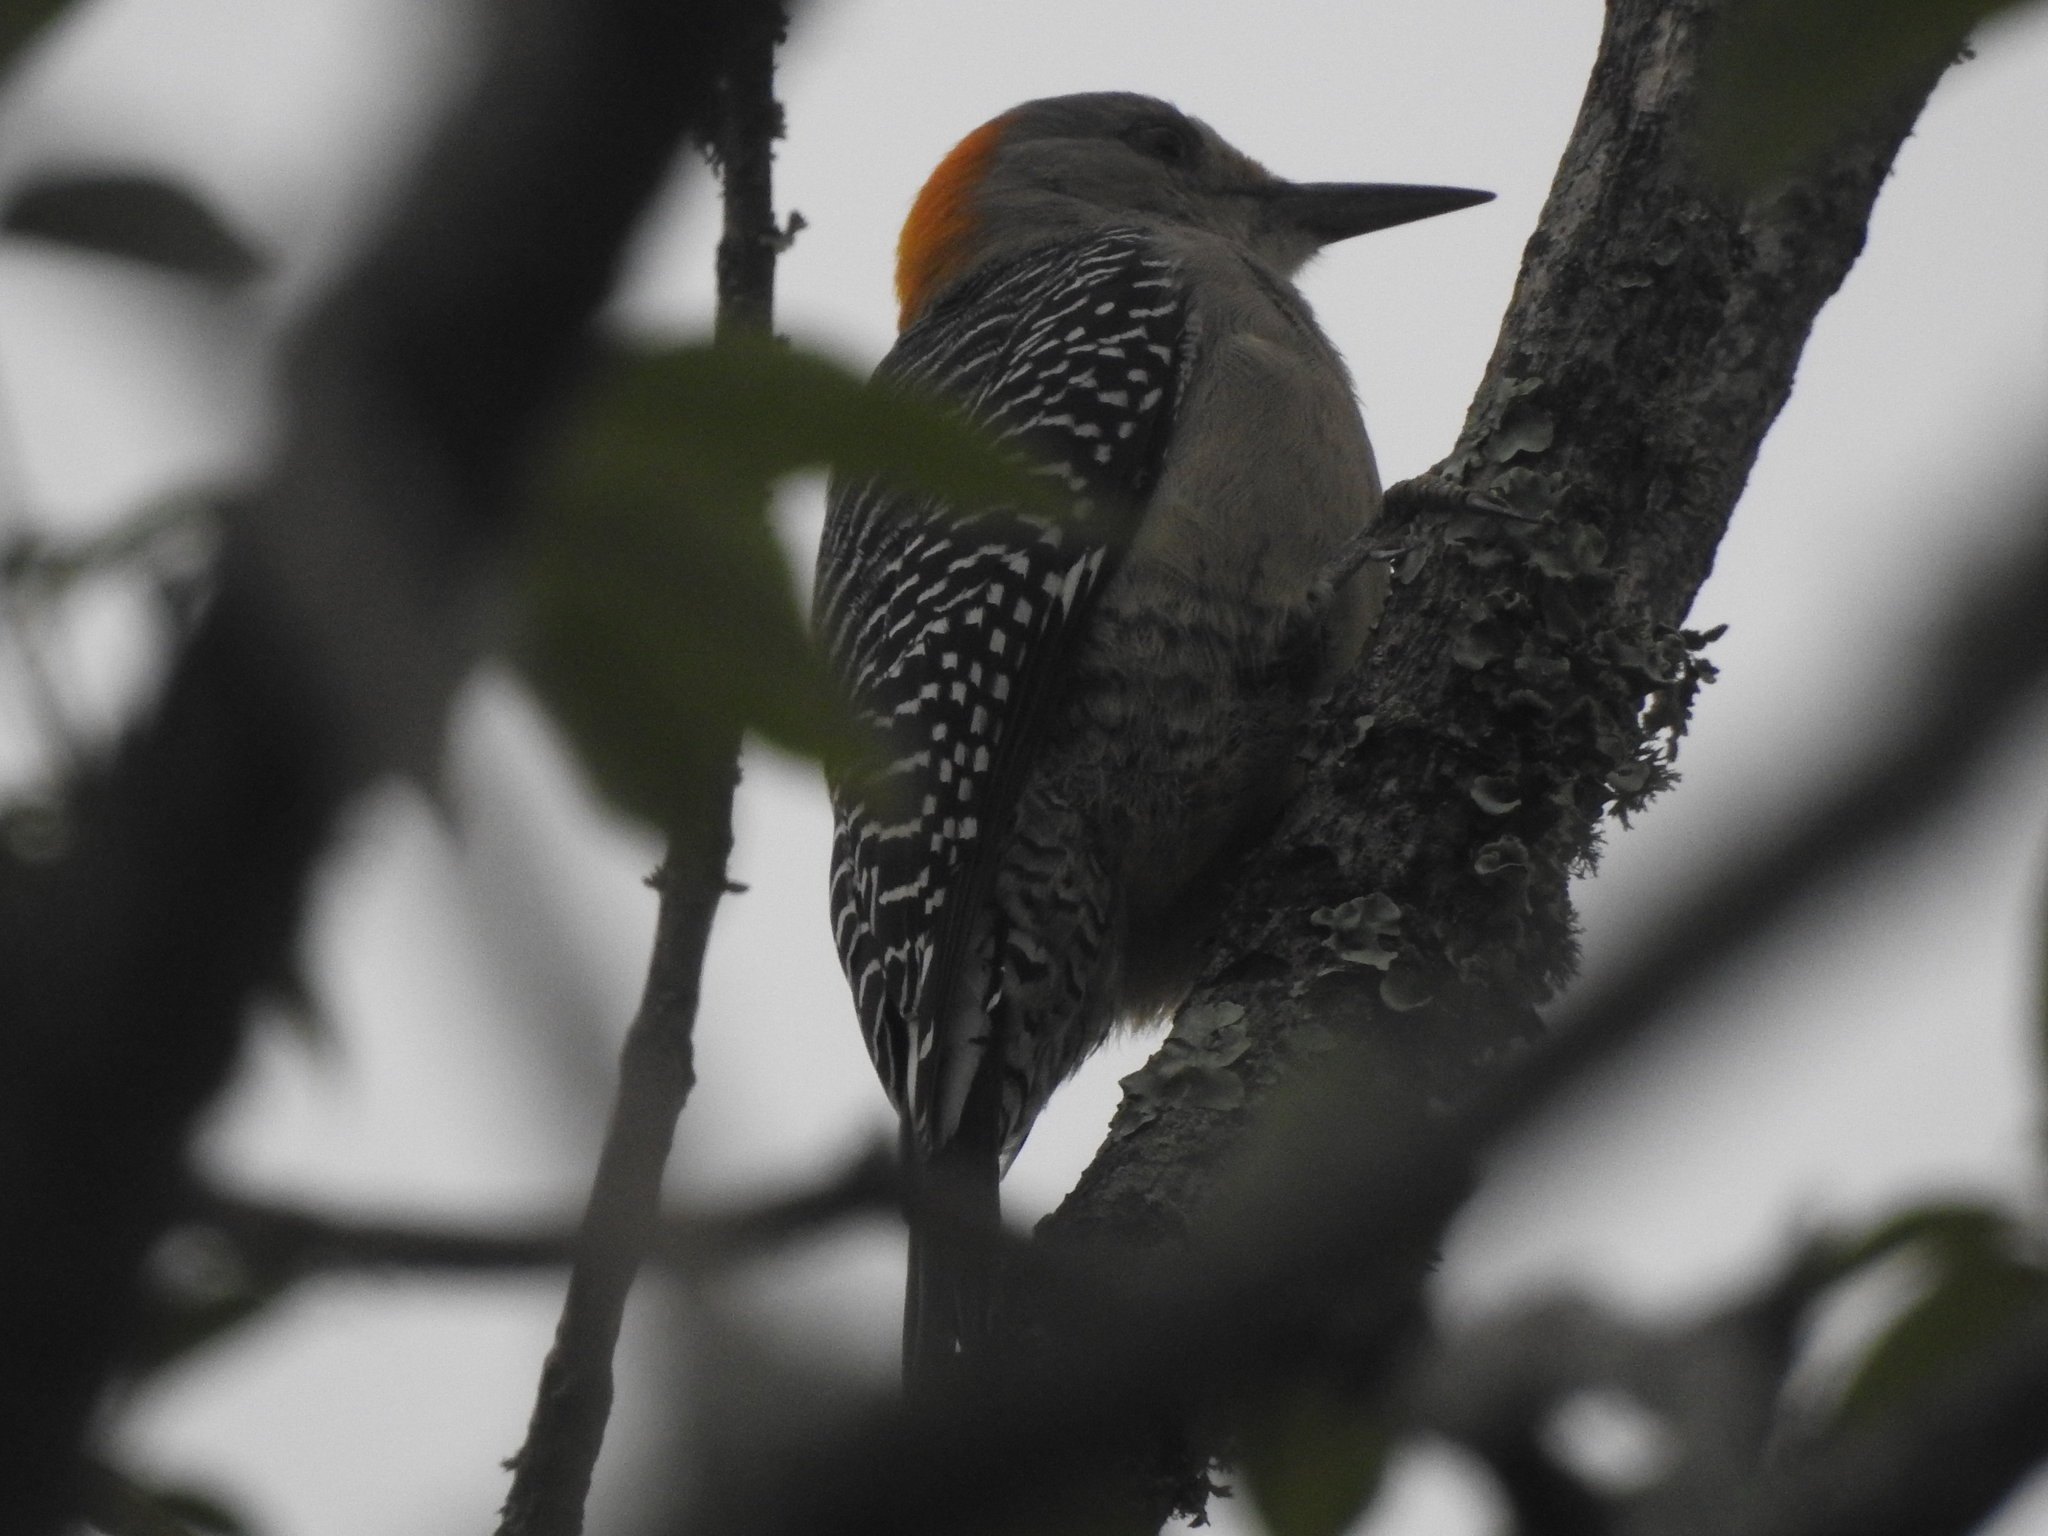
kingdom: Animalia
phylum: Chordata
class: Aves
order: Piciformes
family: Picidae
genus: Melanerpes
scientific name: Melanerpes aurifrons
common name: Golden-fronted woodpecker
